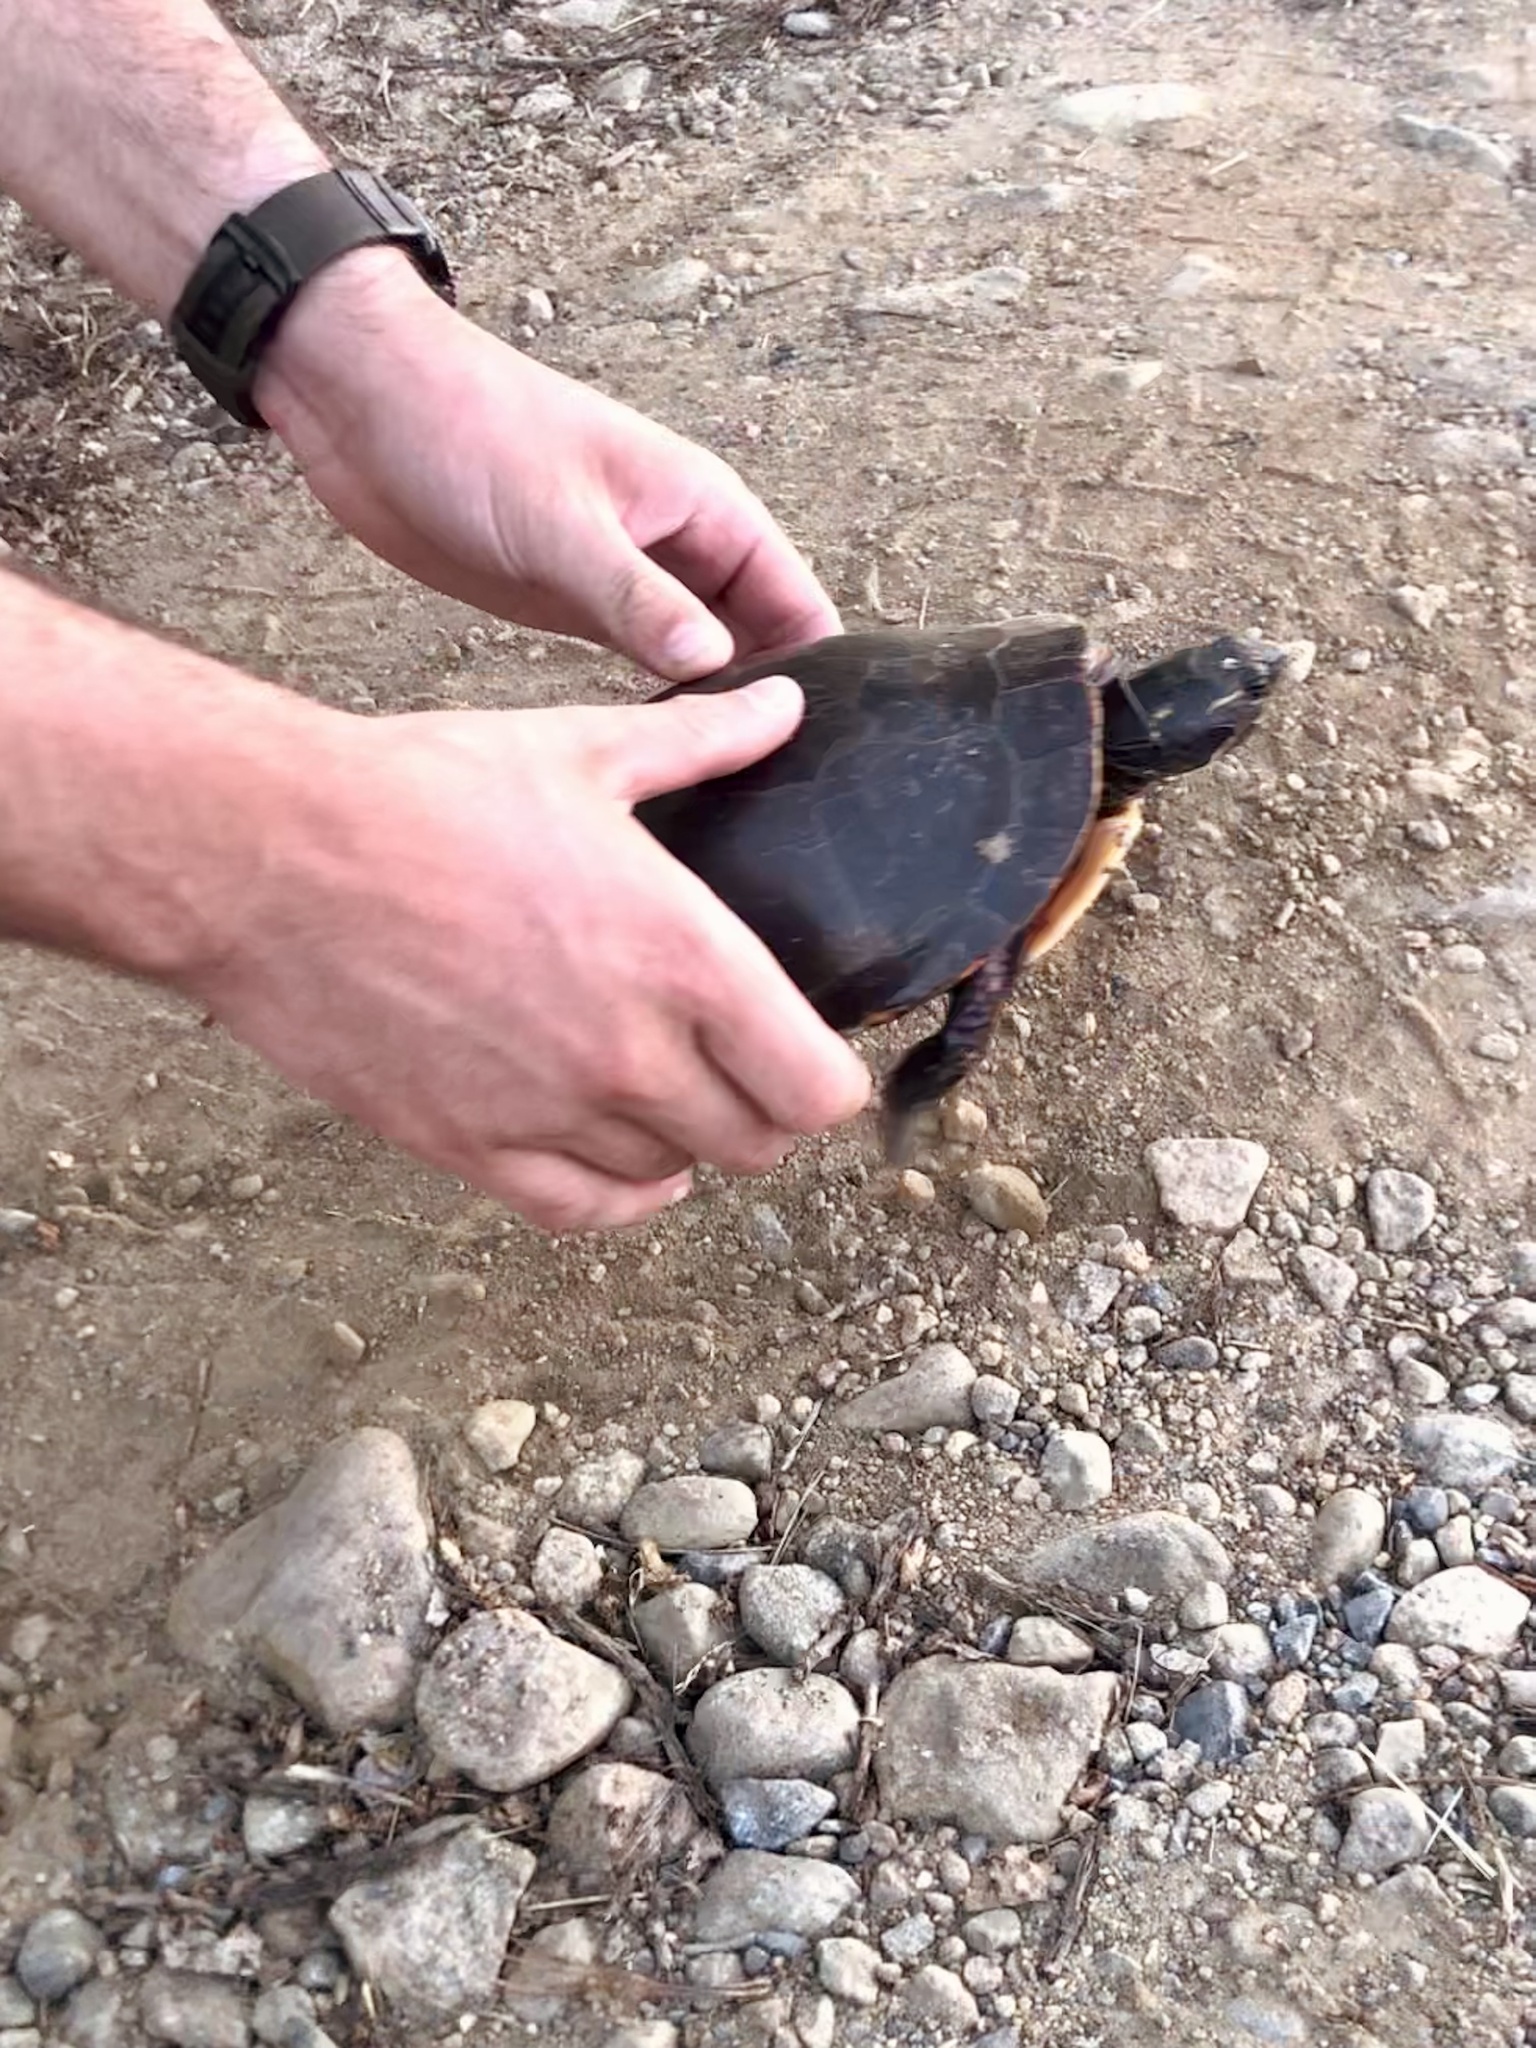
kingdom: Animalia
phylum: Chordata
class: Testudines
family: Emydidae
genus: Chrysemys
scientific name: Chrysemys picta
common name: Painted turtle
